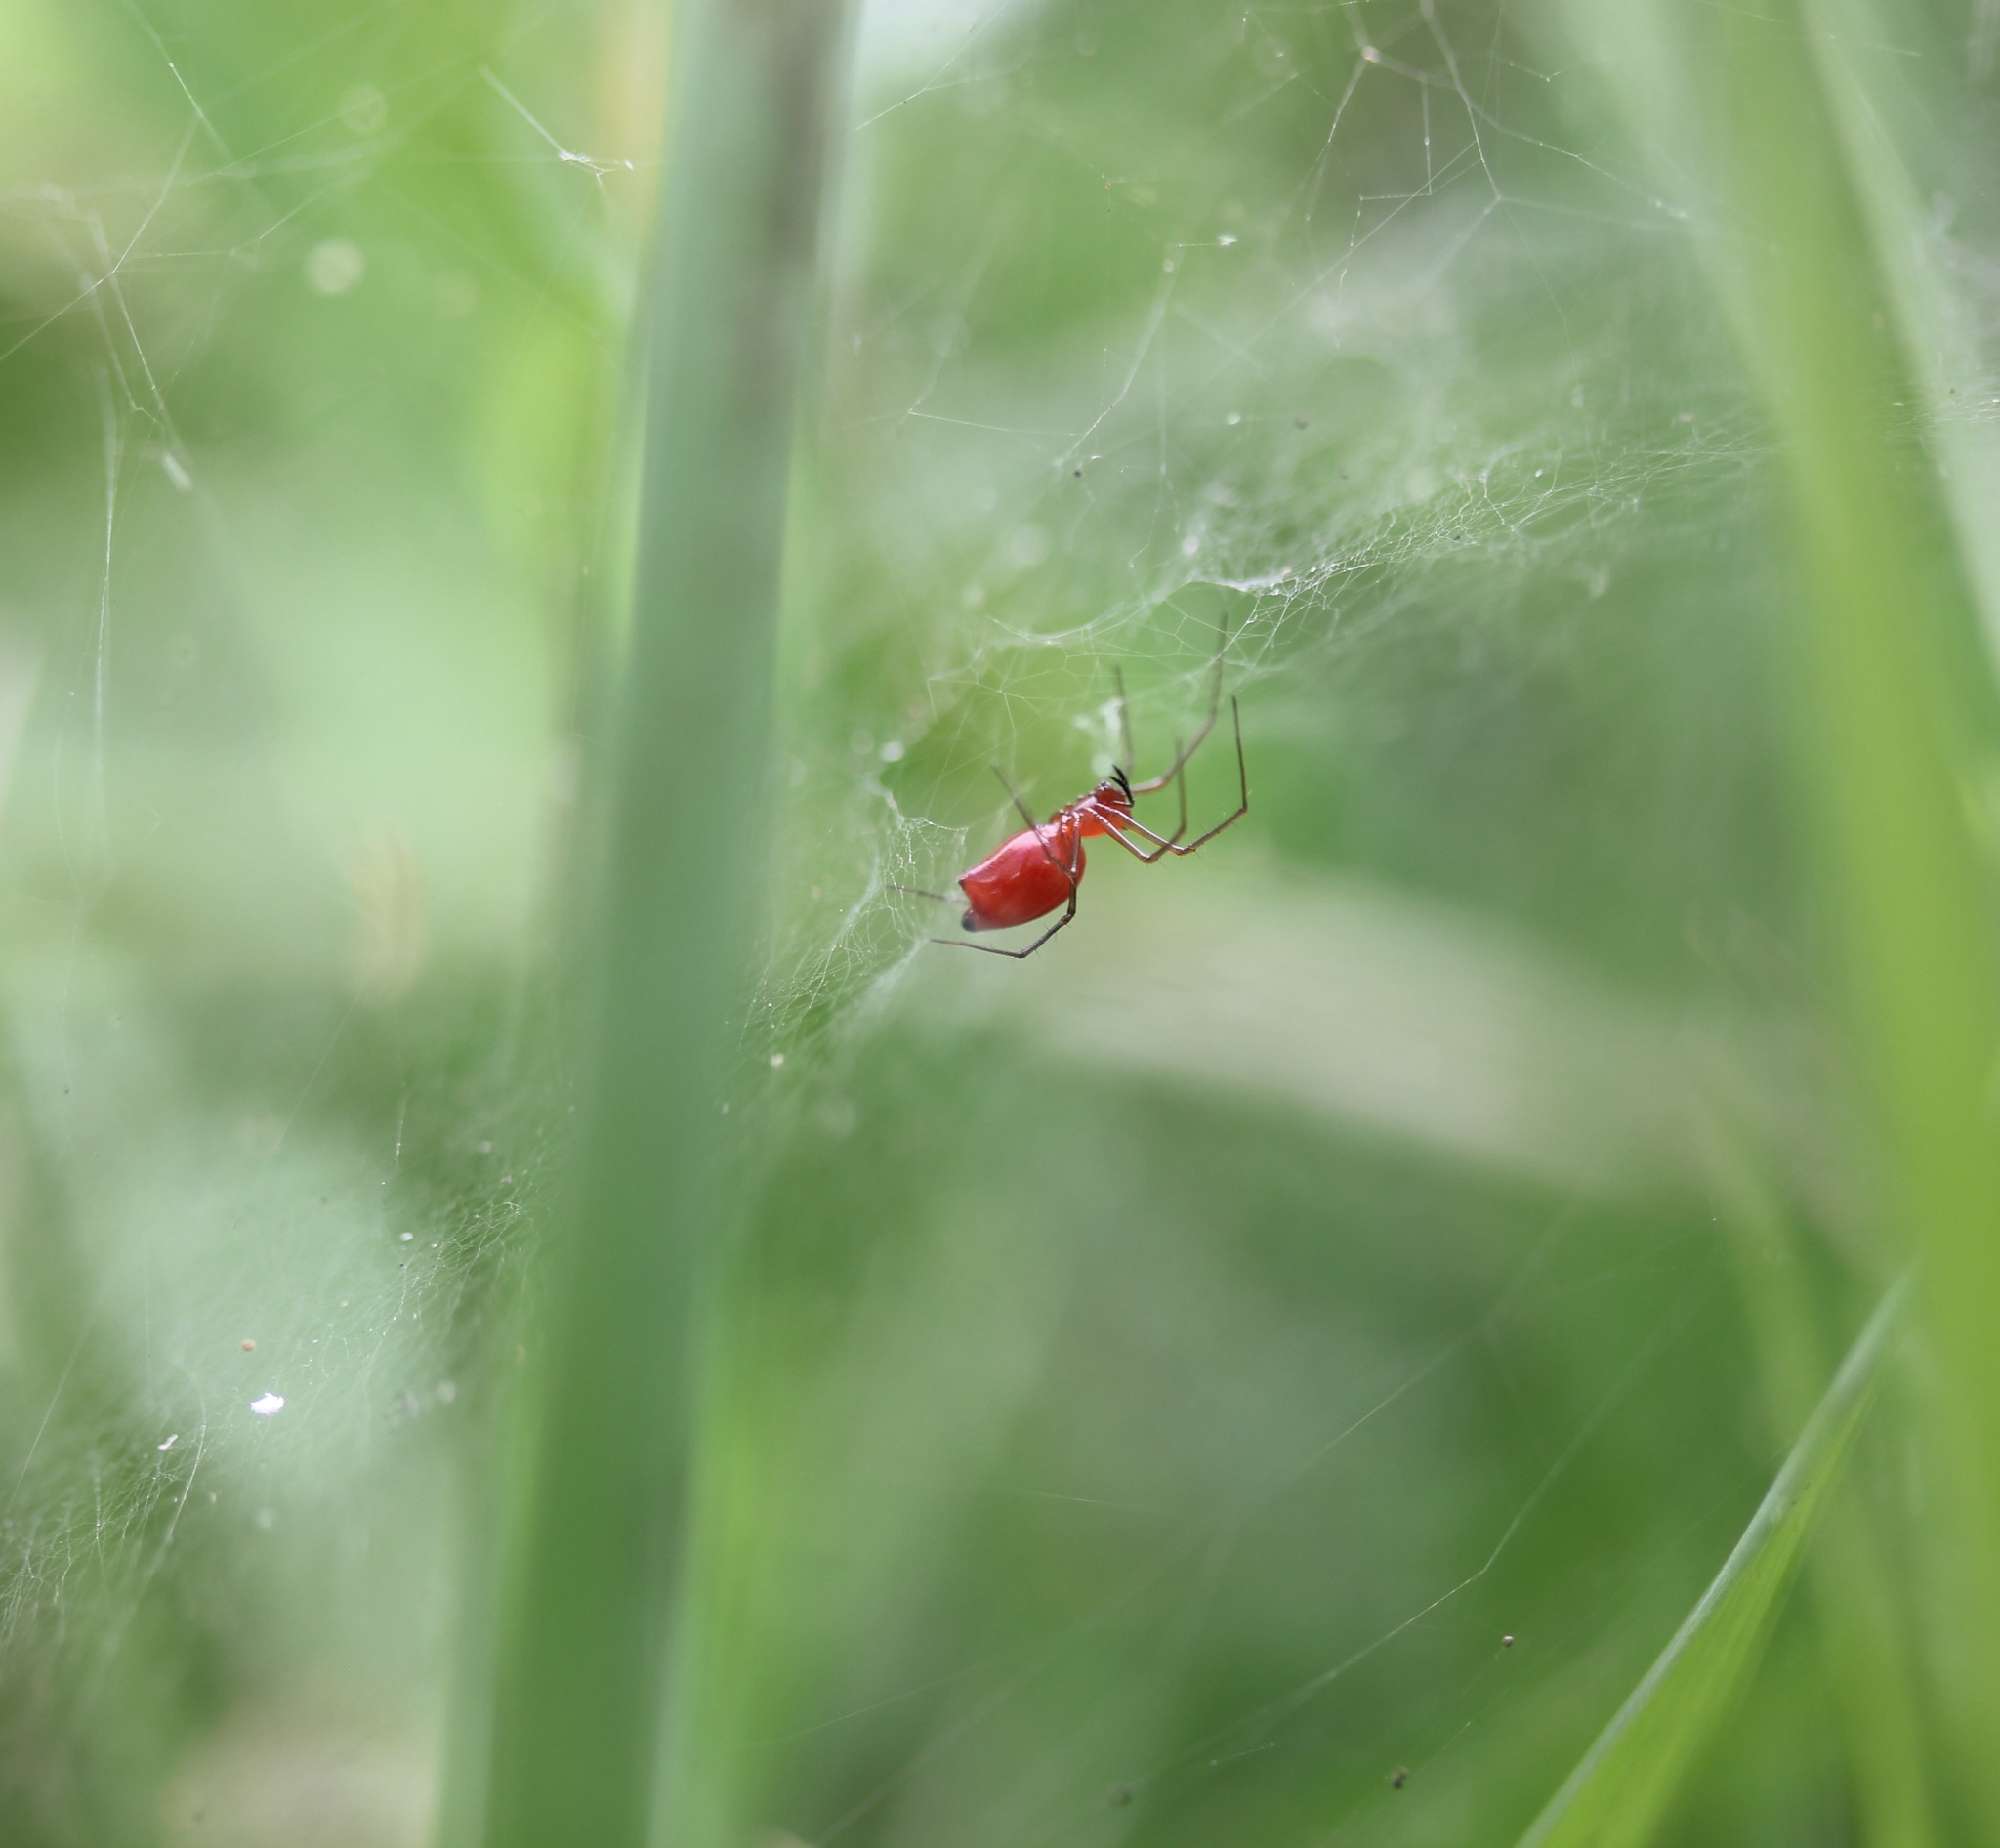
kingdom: Animalia
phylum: Arthropoda
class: Arachnida
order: Araneae
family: Linyphiidae
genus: Florinda
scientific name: Florinda coccinea
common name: Black-tailed red sheetweaver
